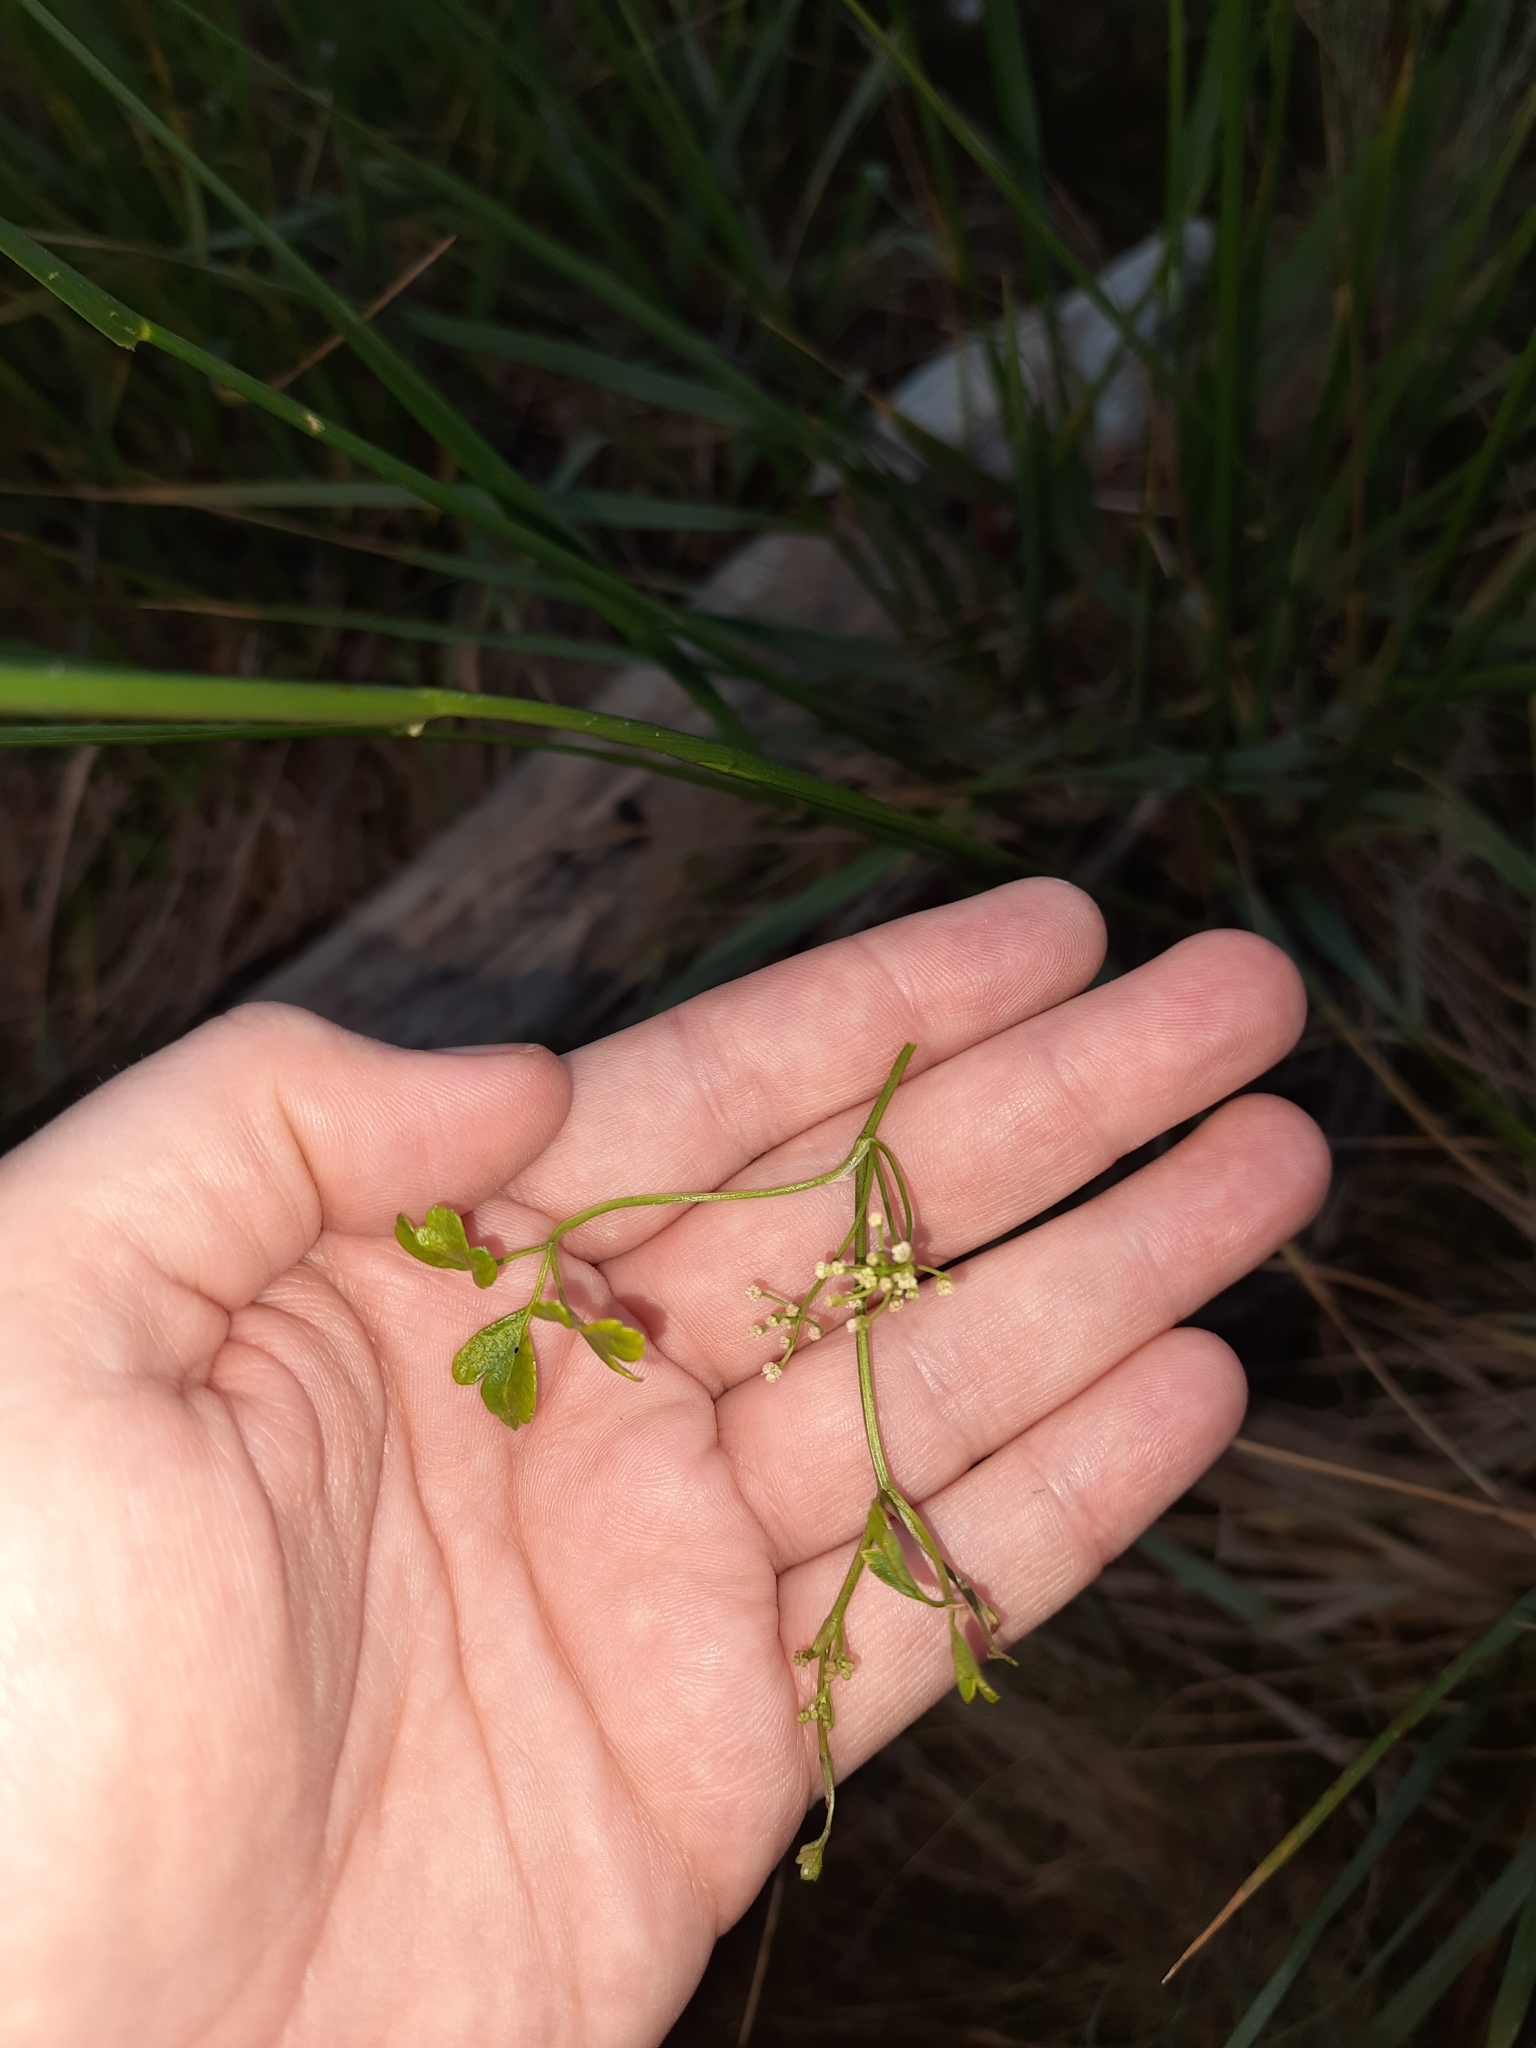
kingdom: Plantae
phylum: Tracheophyta
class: Magnoliopsida
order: Apiales
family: Apiaceae
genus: Apium
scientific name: Apium prostratum
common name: Prostrate marshwort
